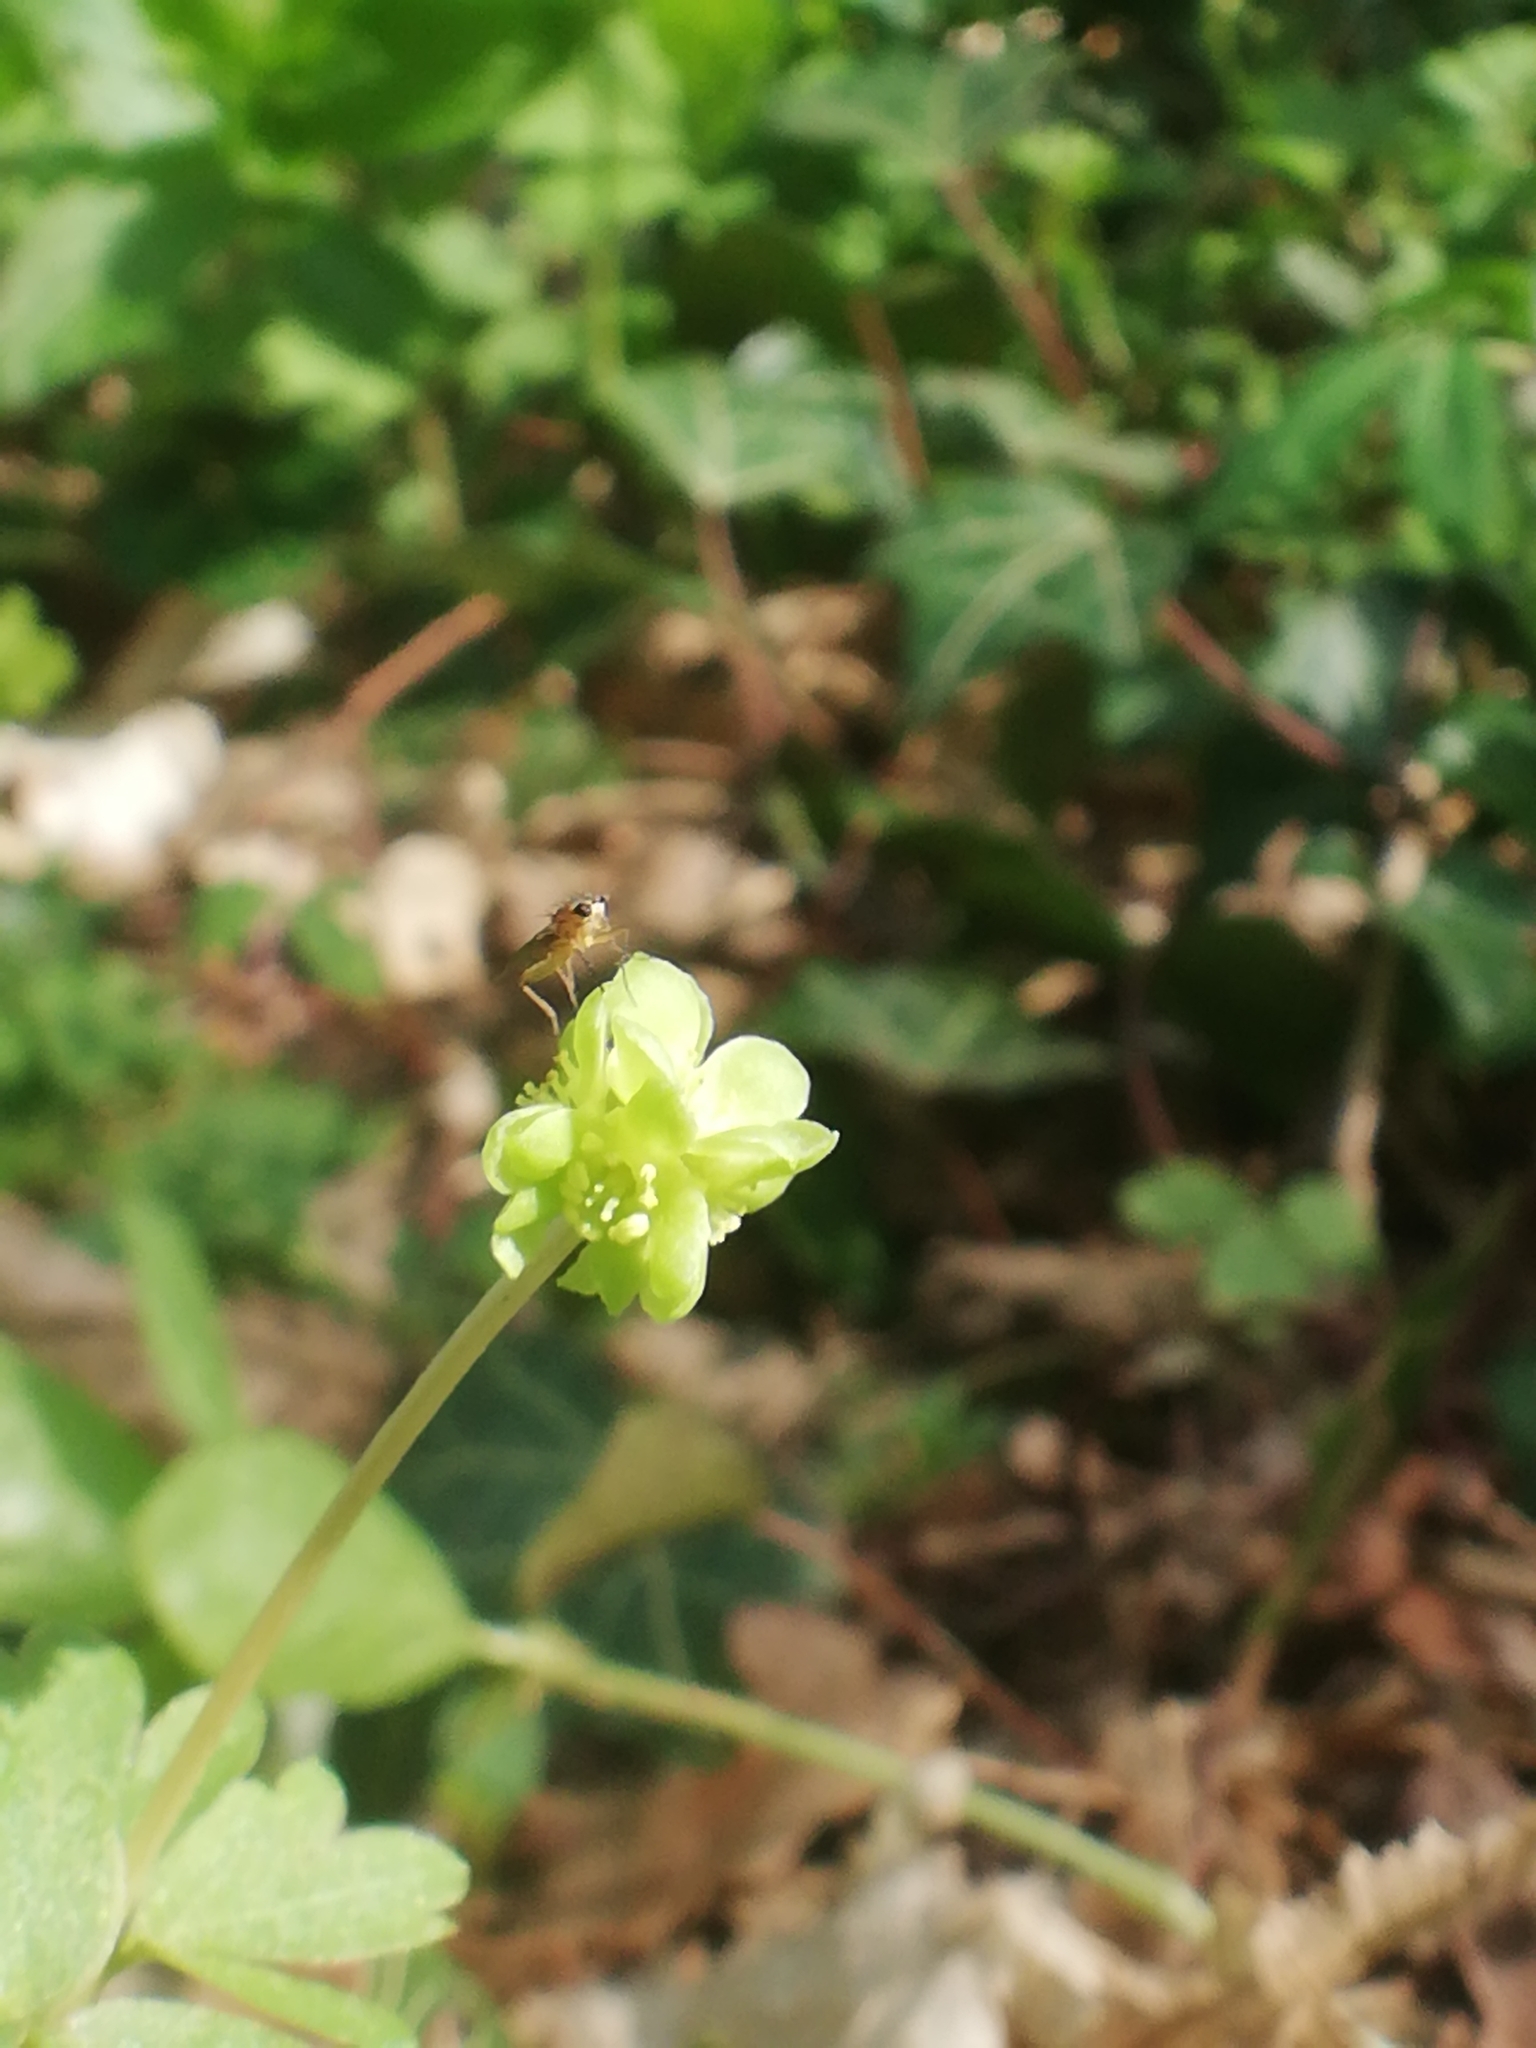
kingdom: Plantae
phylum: Tracheophyta
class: Magnoliopsida
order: Dipsacales
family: Viburnaceae
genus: Adoxa
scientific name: Adoxa moschatellina
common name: Moschatel
